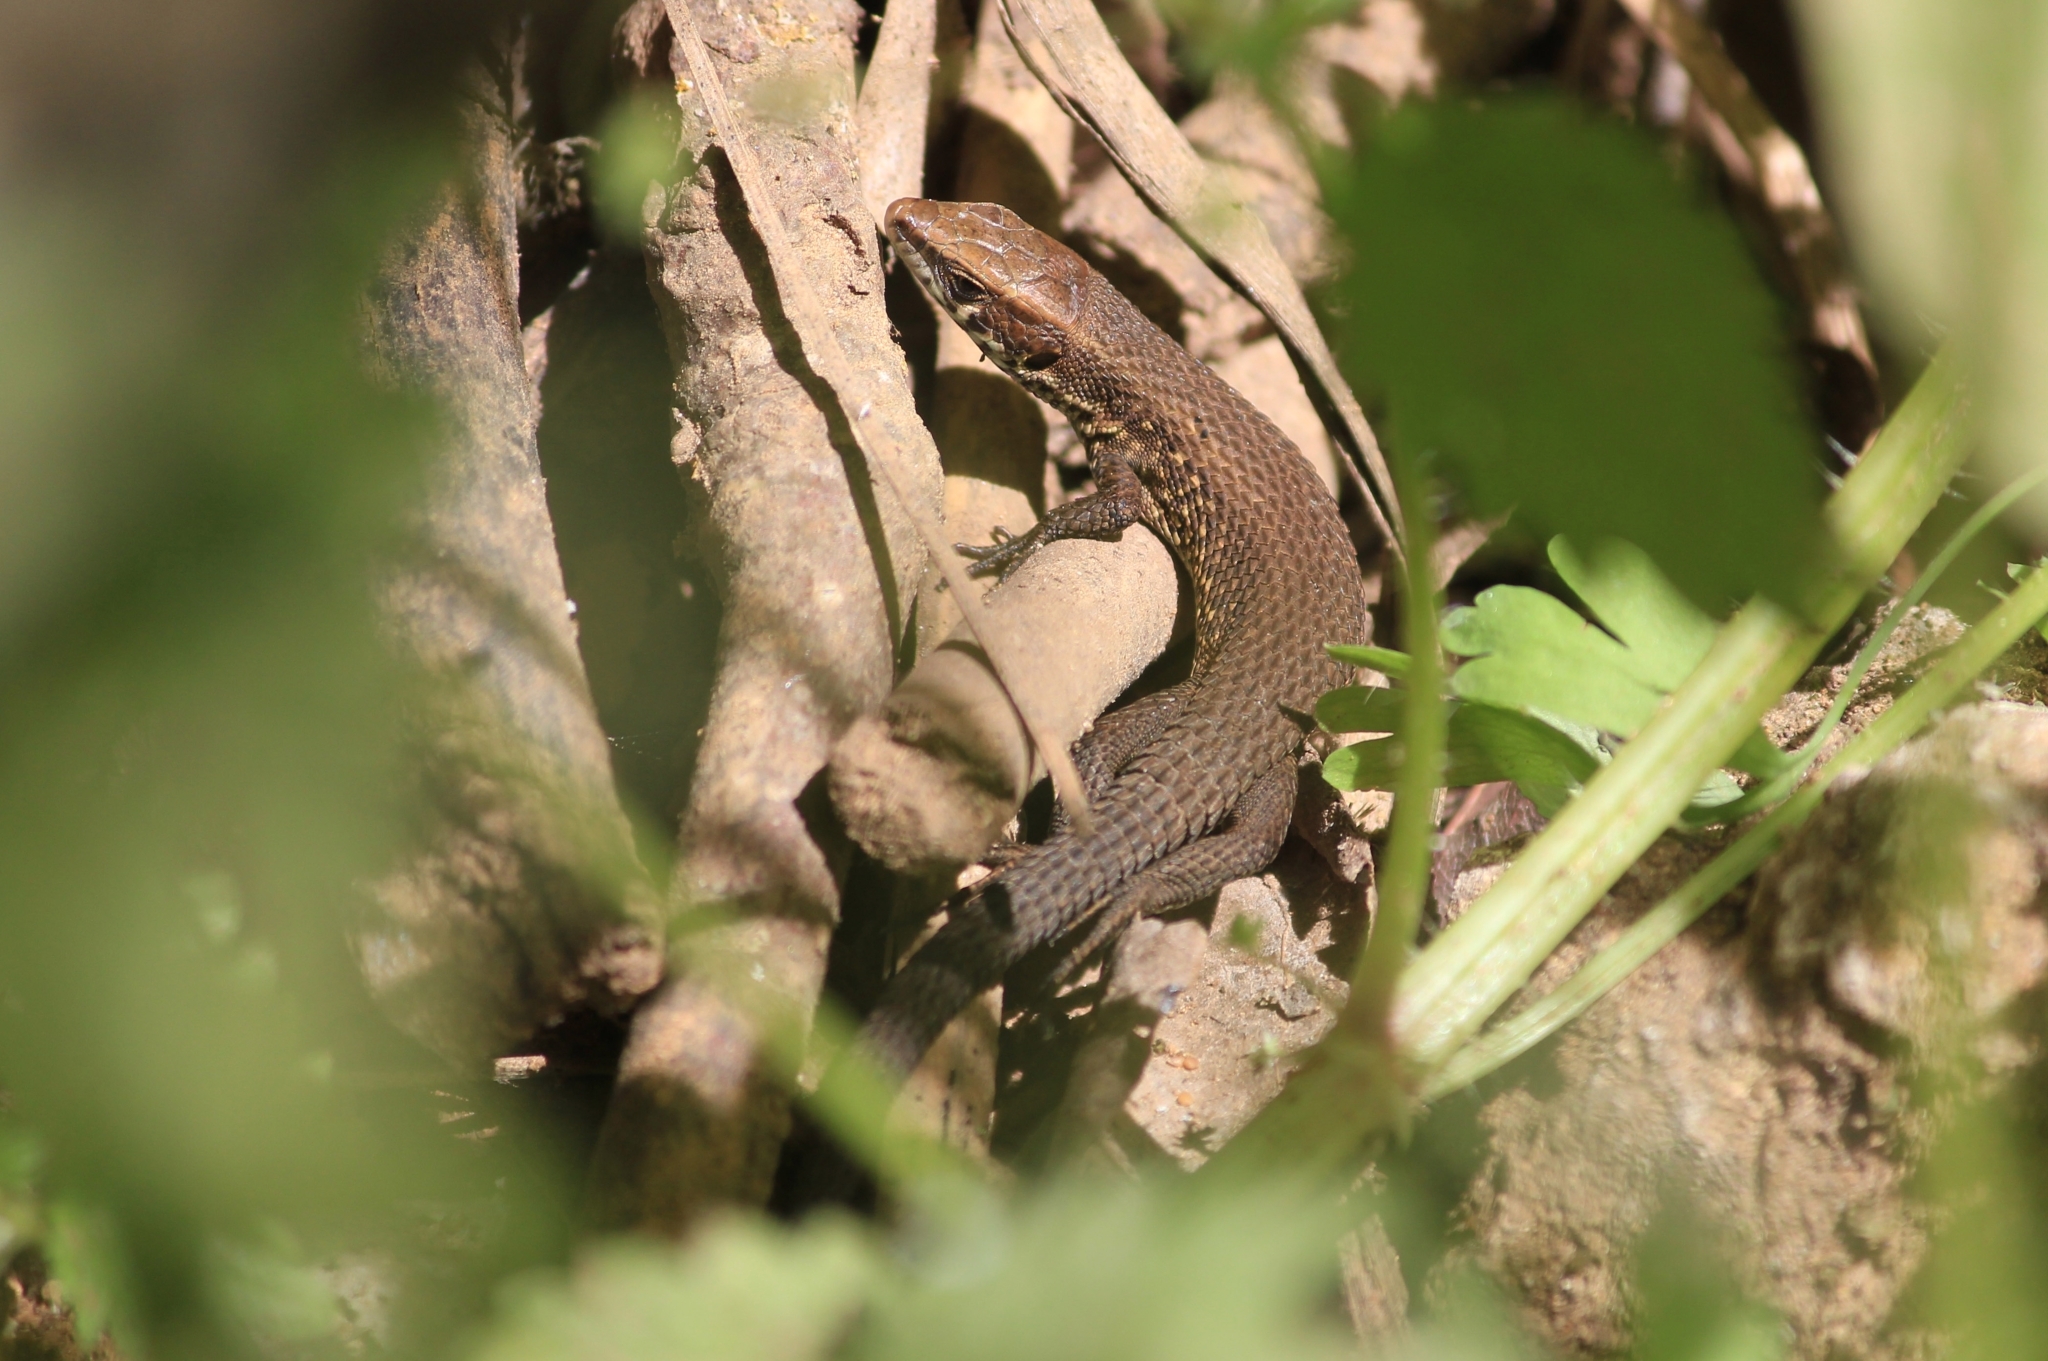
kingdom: Animalia
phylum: Chordata
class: Squamata
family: Lacertidae
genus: Algyroides
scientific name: Algyroides moreoticus
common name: Greek algyroides
